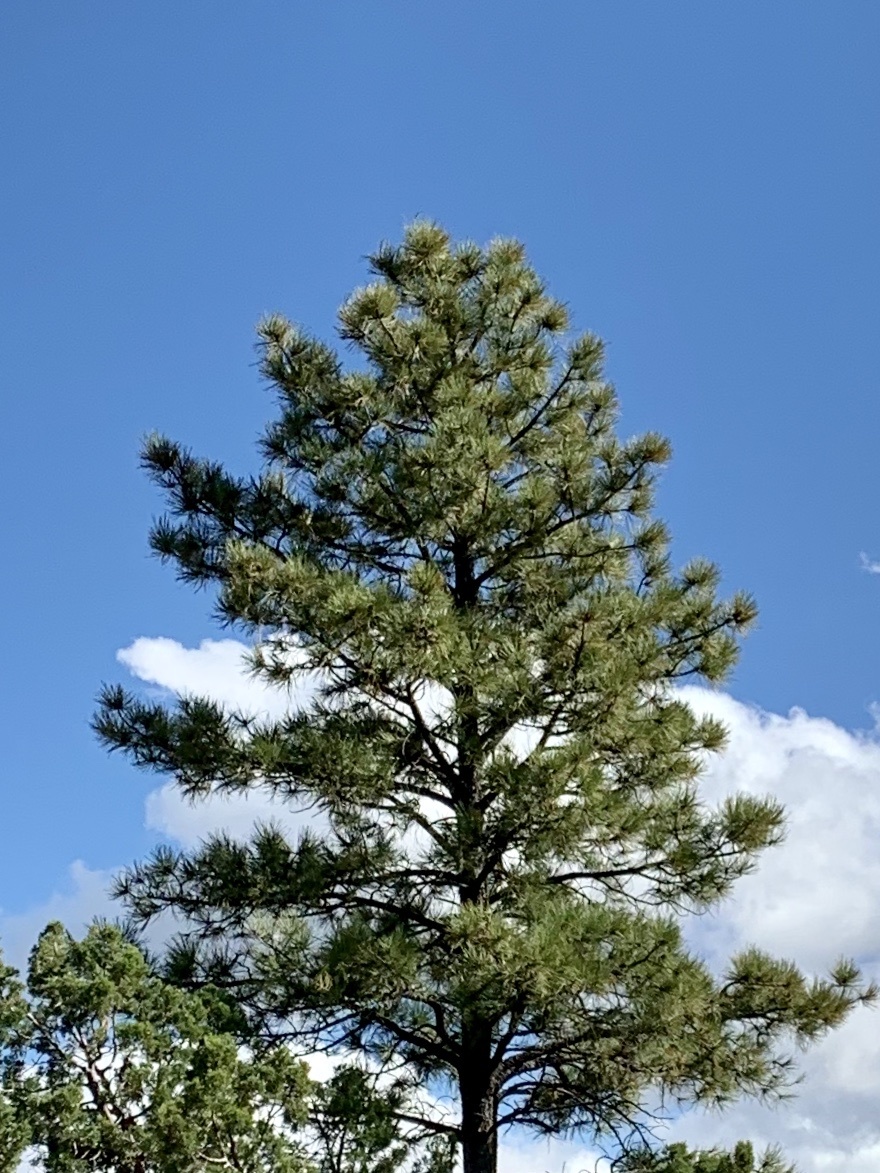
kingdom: Plantae
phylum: Tracheophyta
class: Pinopsida
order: Pinales
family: Pinaceae
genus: Pinus
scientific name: Pinus ponderosa
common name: Western yellow-pine
